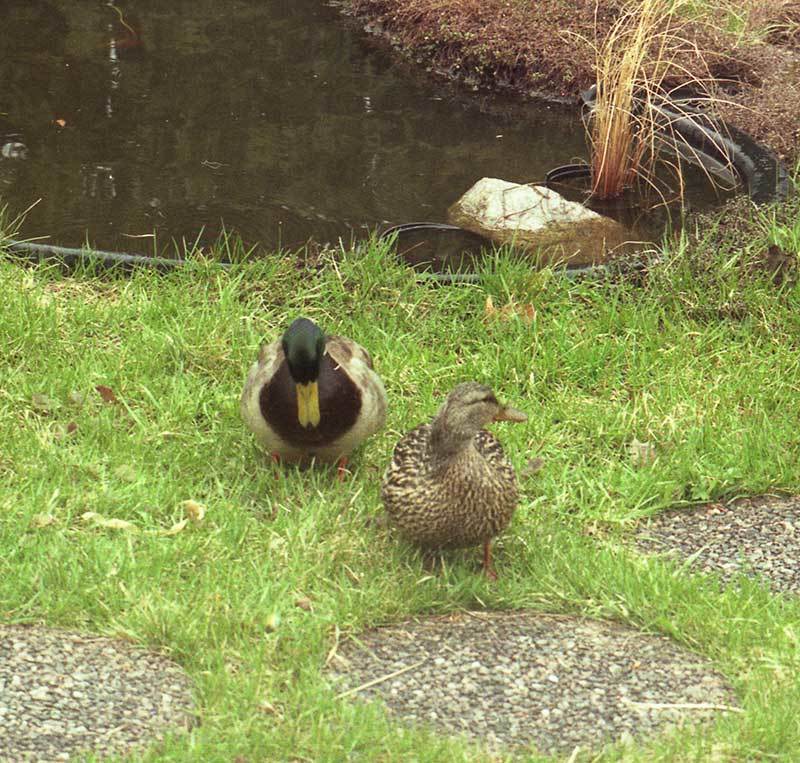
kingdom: Animalia
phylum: Chordata
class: Aves
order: Anseriformes
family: Anatidae
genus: Anas
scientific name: Anas platyrhynchos
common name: Mallard
